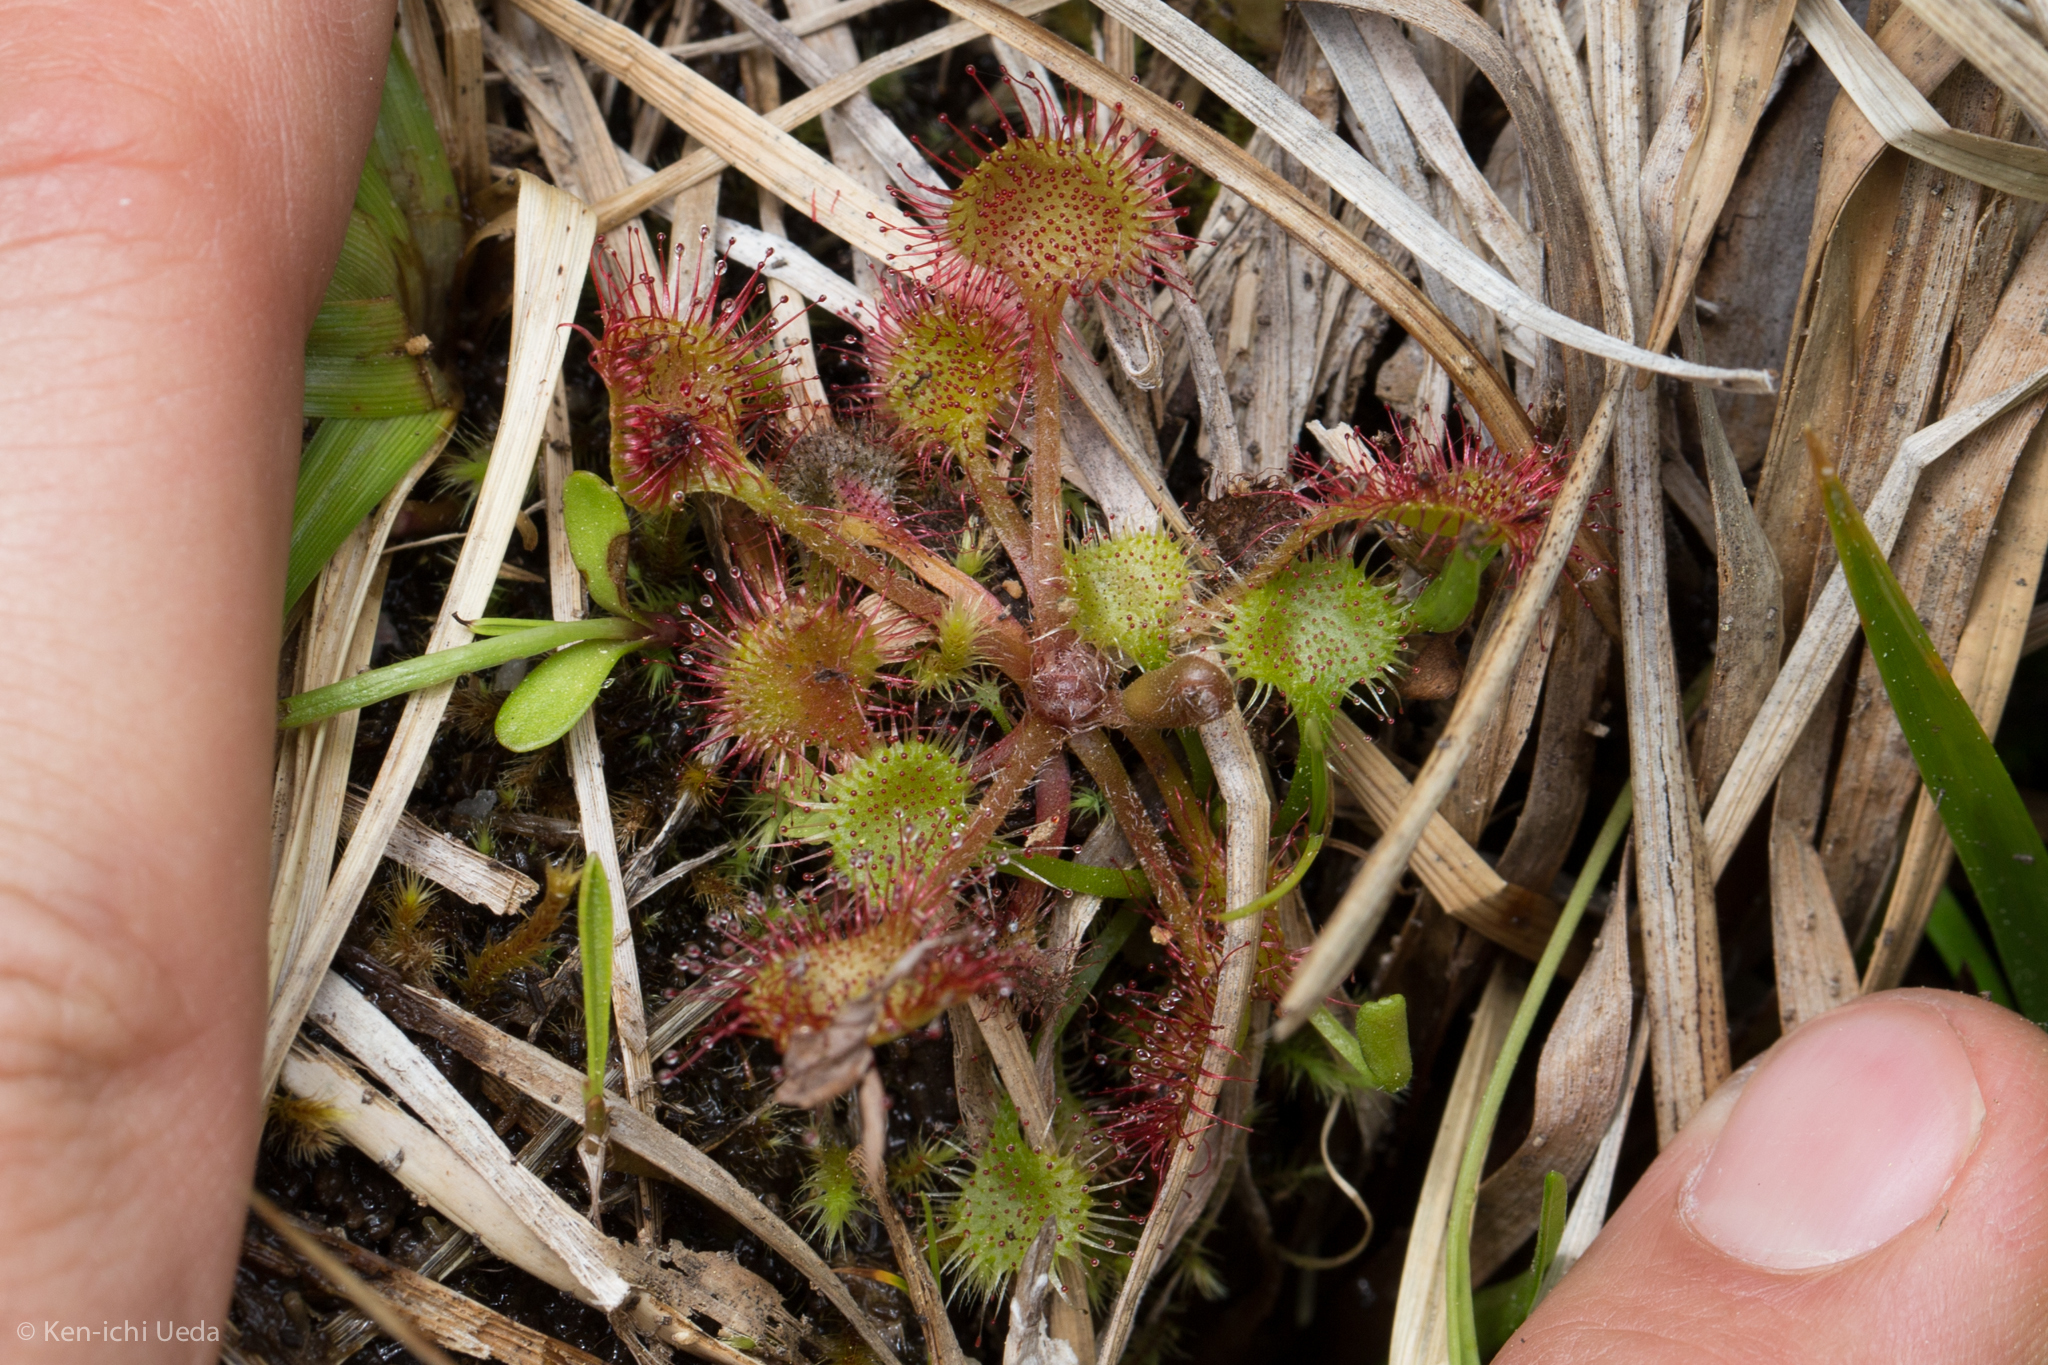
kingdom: Plantae
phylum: Tracheophyta
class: Magnoliopsida
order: Caryophyllales
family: Droseraceae
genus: Drosera
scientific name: Drosera rotundifolia
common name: Round-leaved sundew
